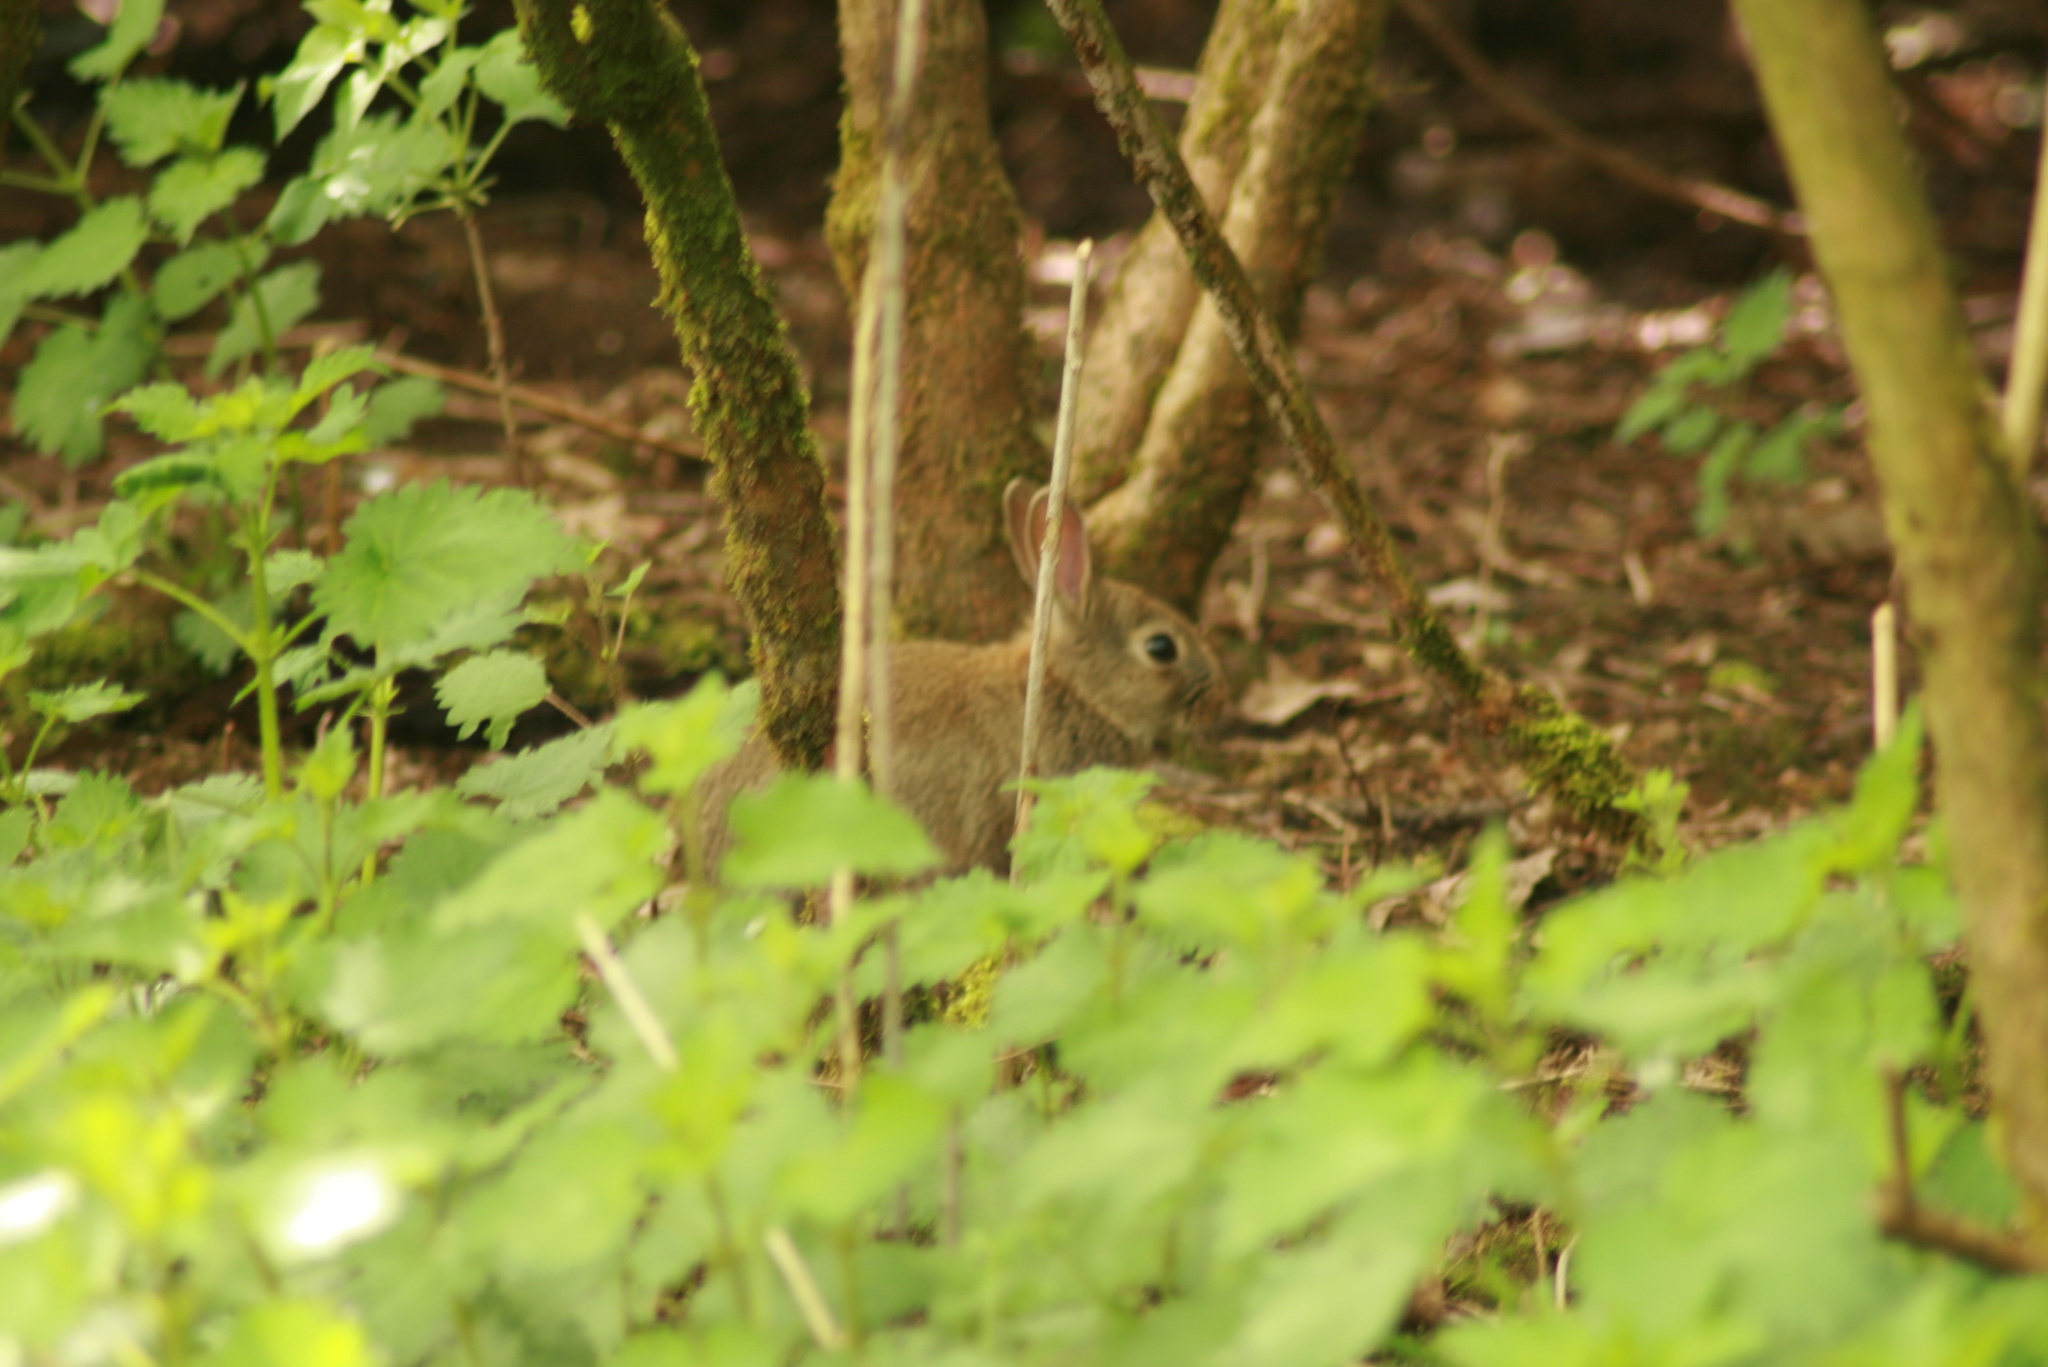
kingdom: Animalia
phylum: Chordata
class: Mammalia
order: Lagomorpha
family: Leporidae
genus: Oryctolagus
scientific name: Oryctolagus cuniculus
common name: European rabbit
